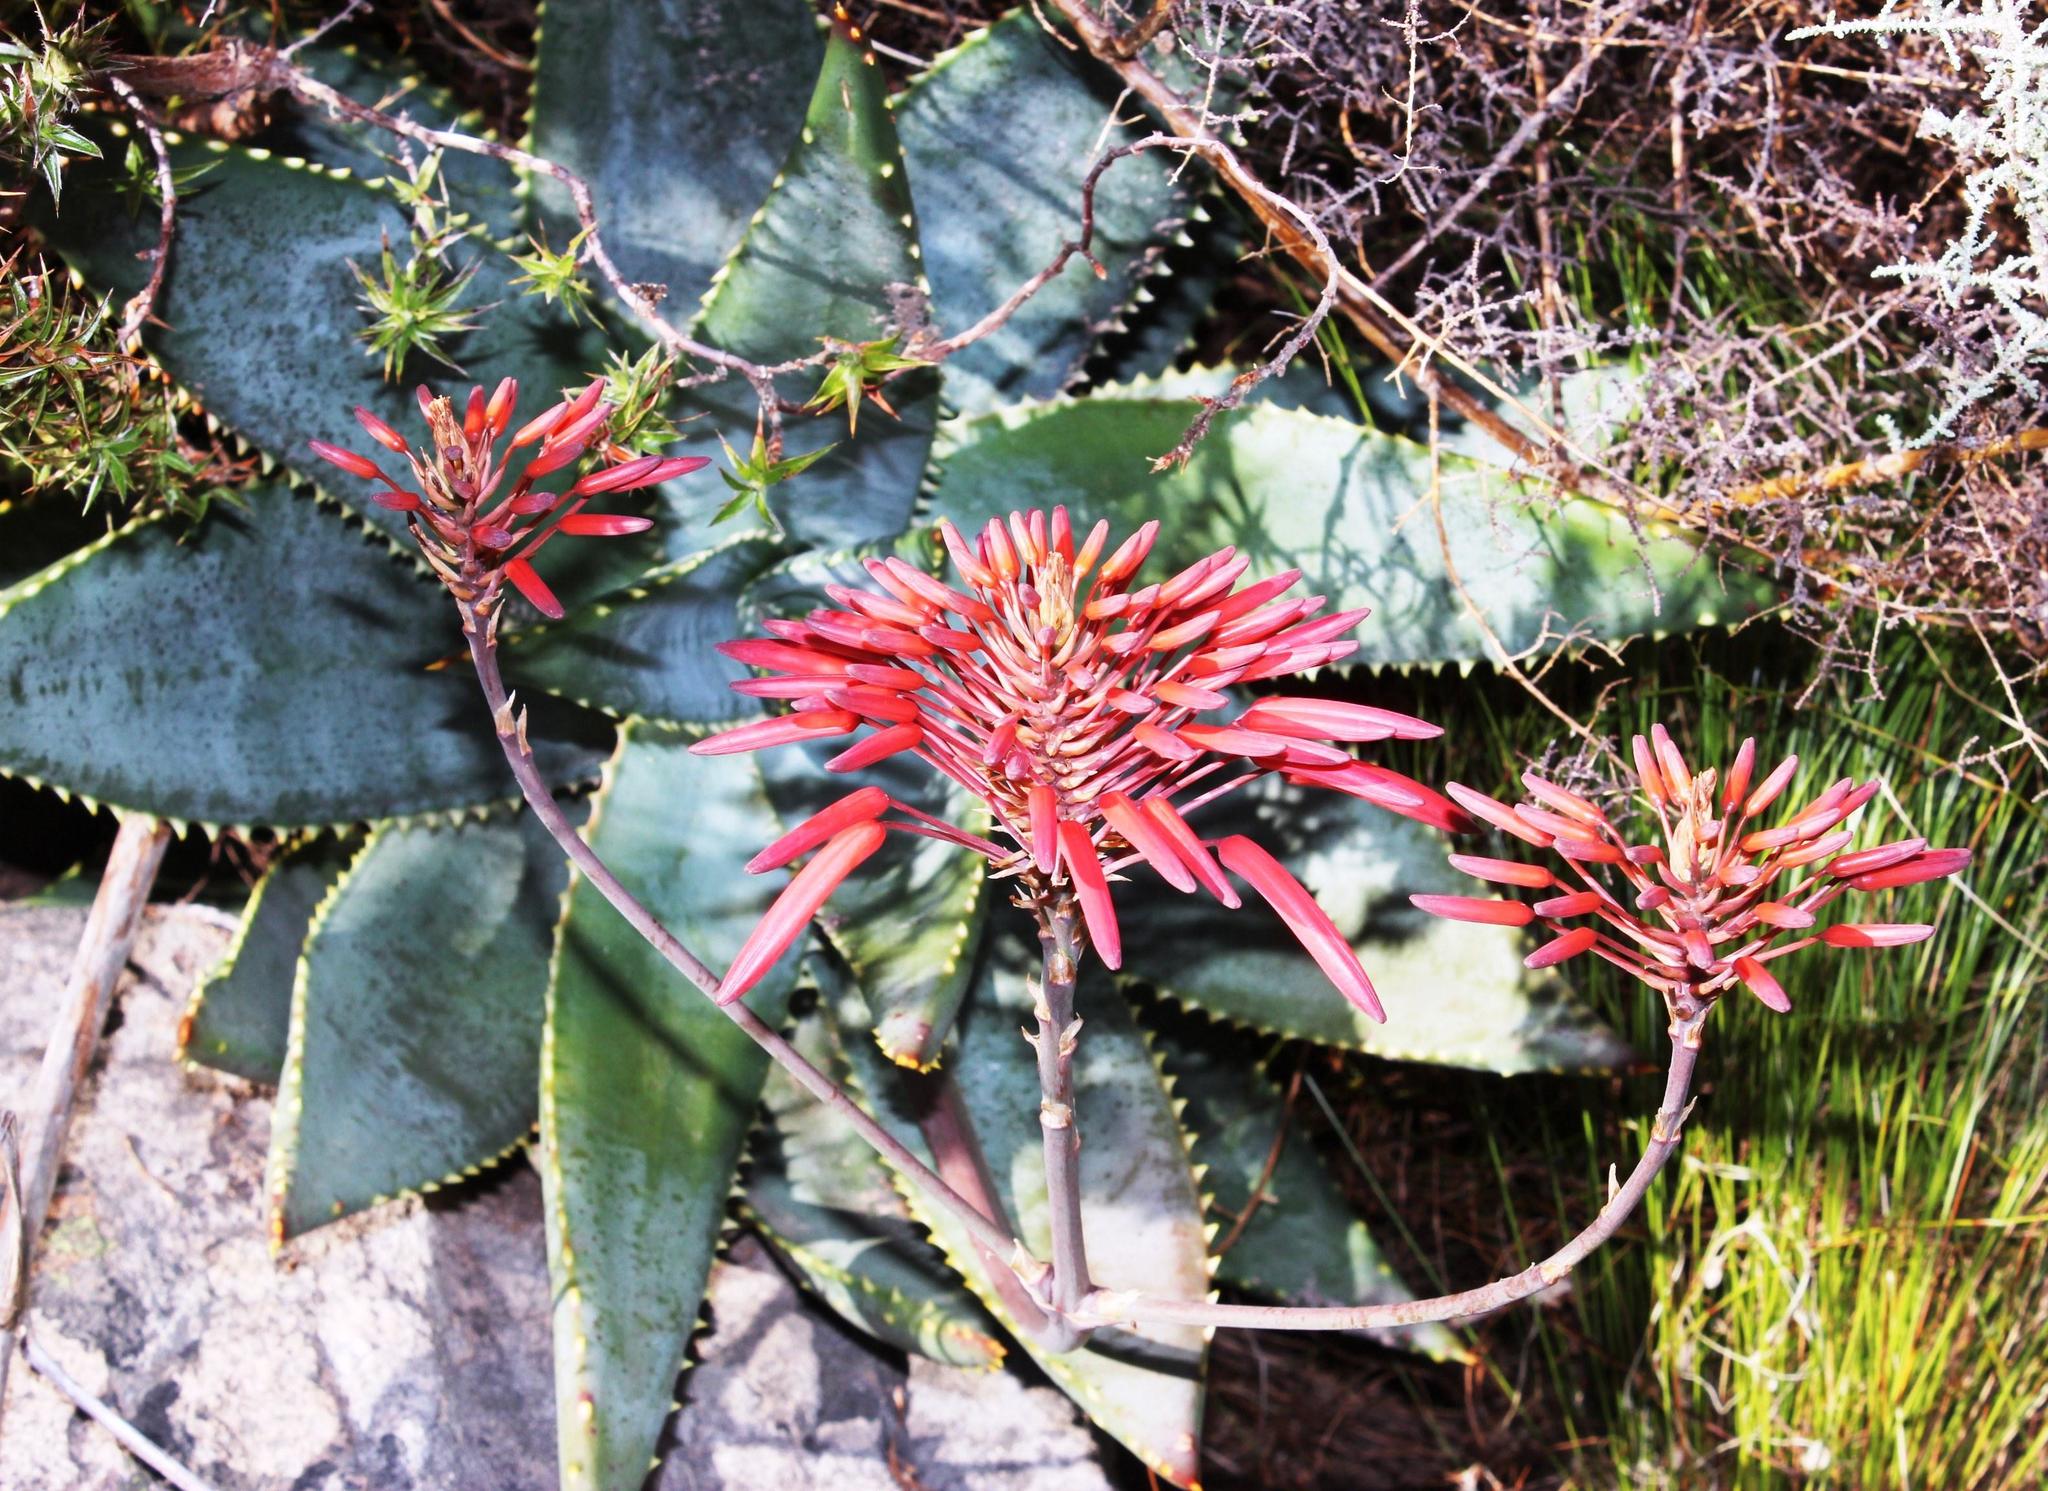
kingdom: Plantae
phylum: Tracheophyta
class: Liliopsida
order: Asparagales
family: Asphodelaceae
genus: Aloe
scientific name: Aloe perfoliata
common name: Mitra aloe
